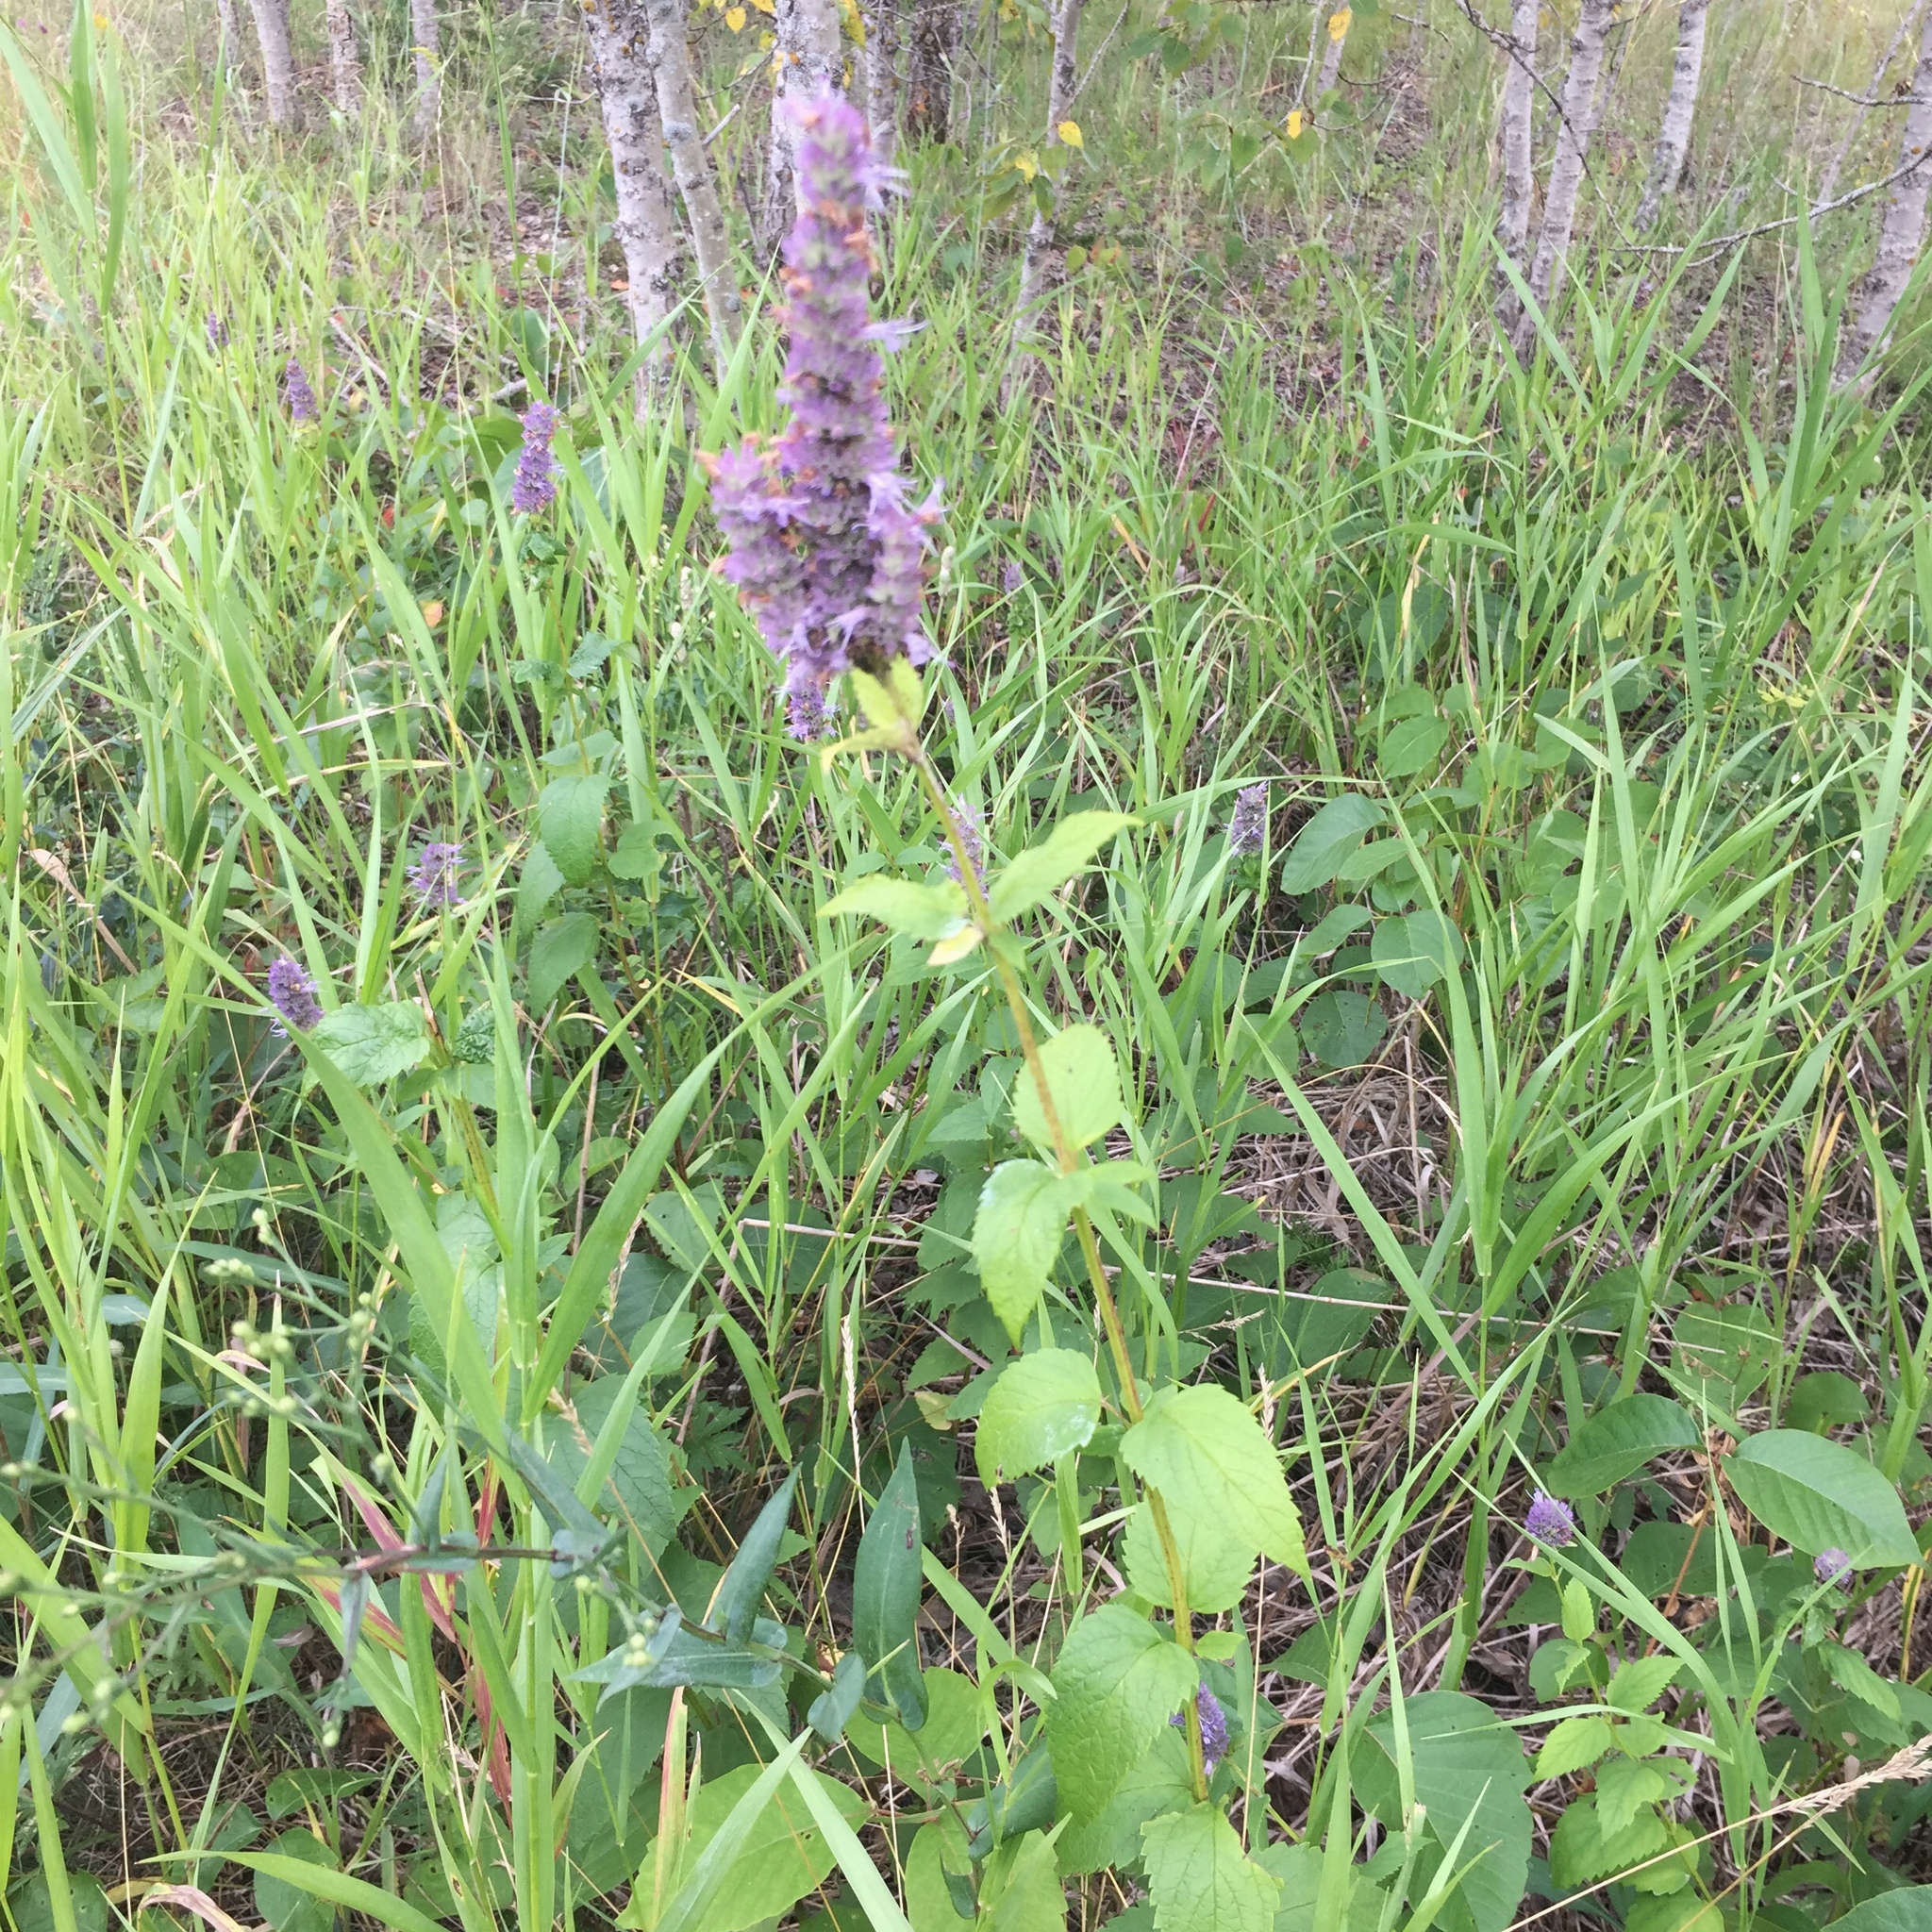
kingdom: Plantae
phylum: Tracheophyta
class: Magnoliopsida
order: Lamiales
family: Lamiaceae
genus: Agastache
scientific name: Agastache foeniculum
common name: Anise hyssop
